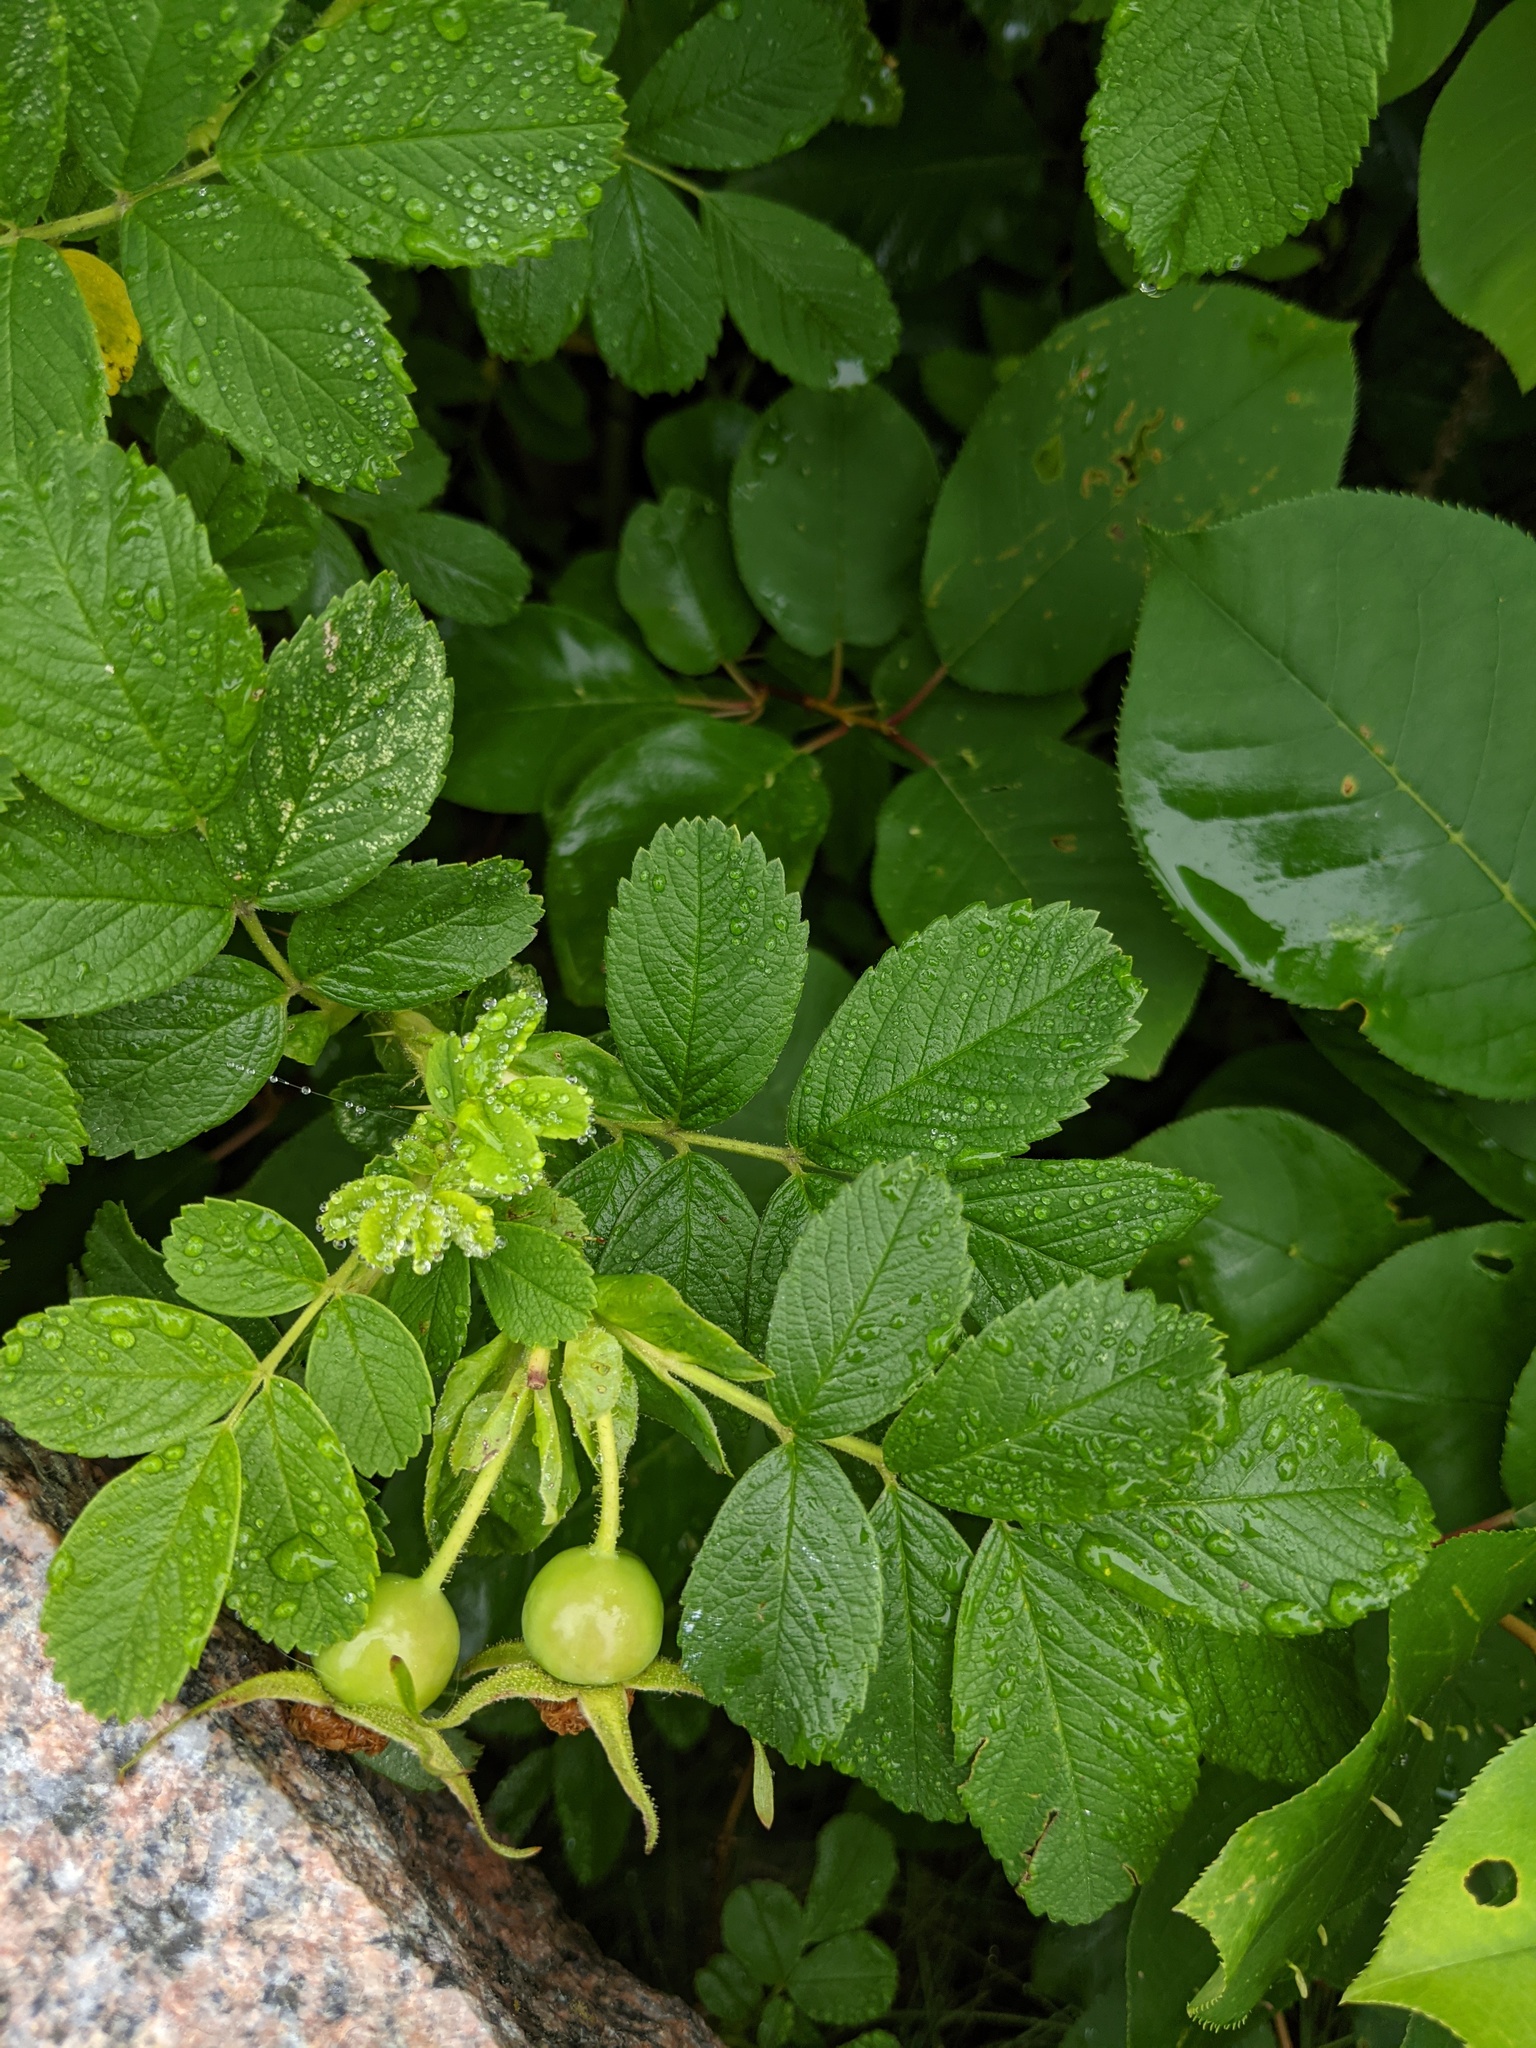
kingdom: Plantae
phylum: Tracheophyta
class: Magnoliopsida
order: Rosales
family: Rosaceae
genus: Rosa
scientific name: Rosa rugosa
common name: Japanese rose
